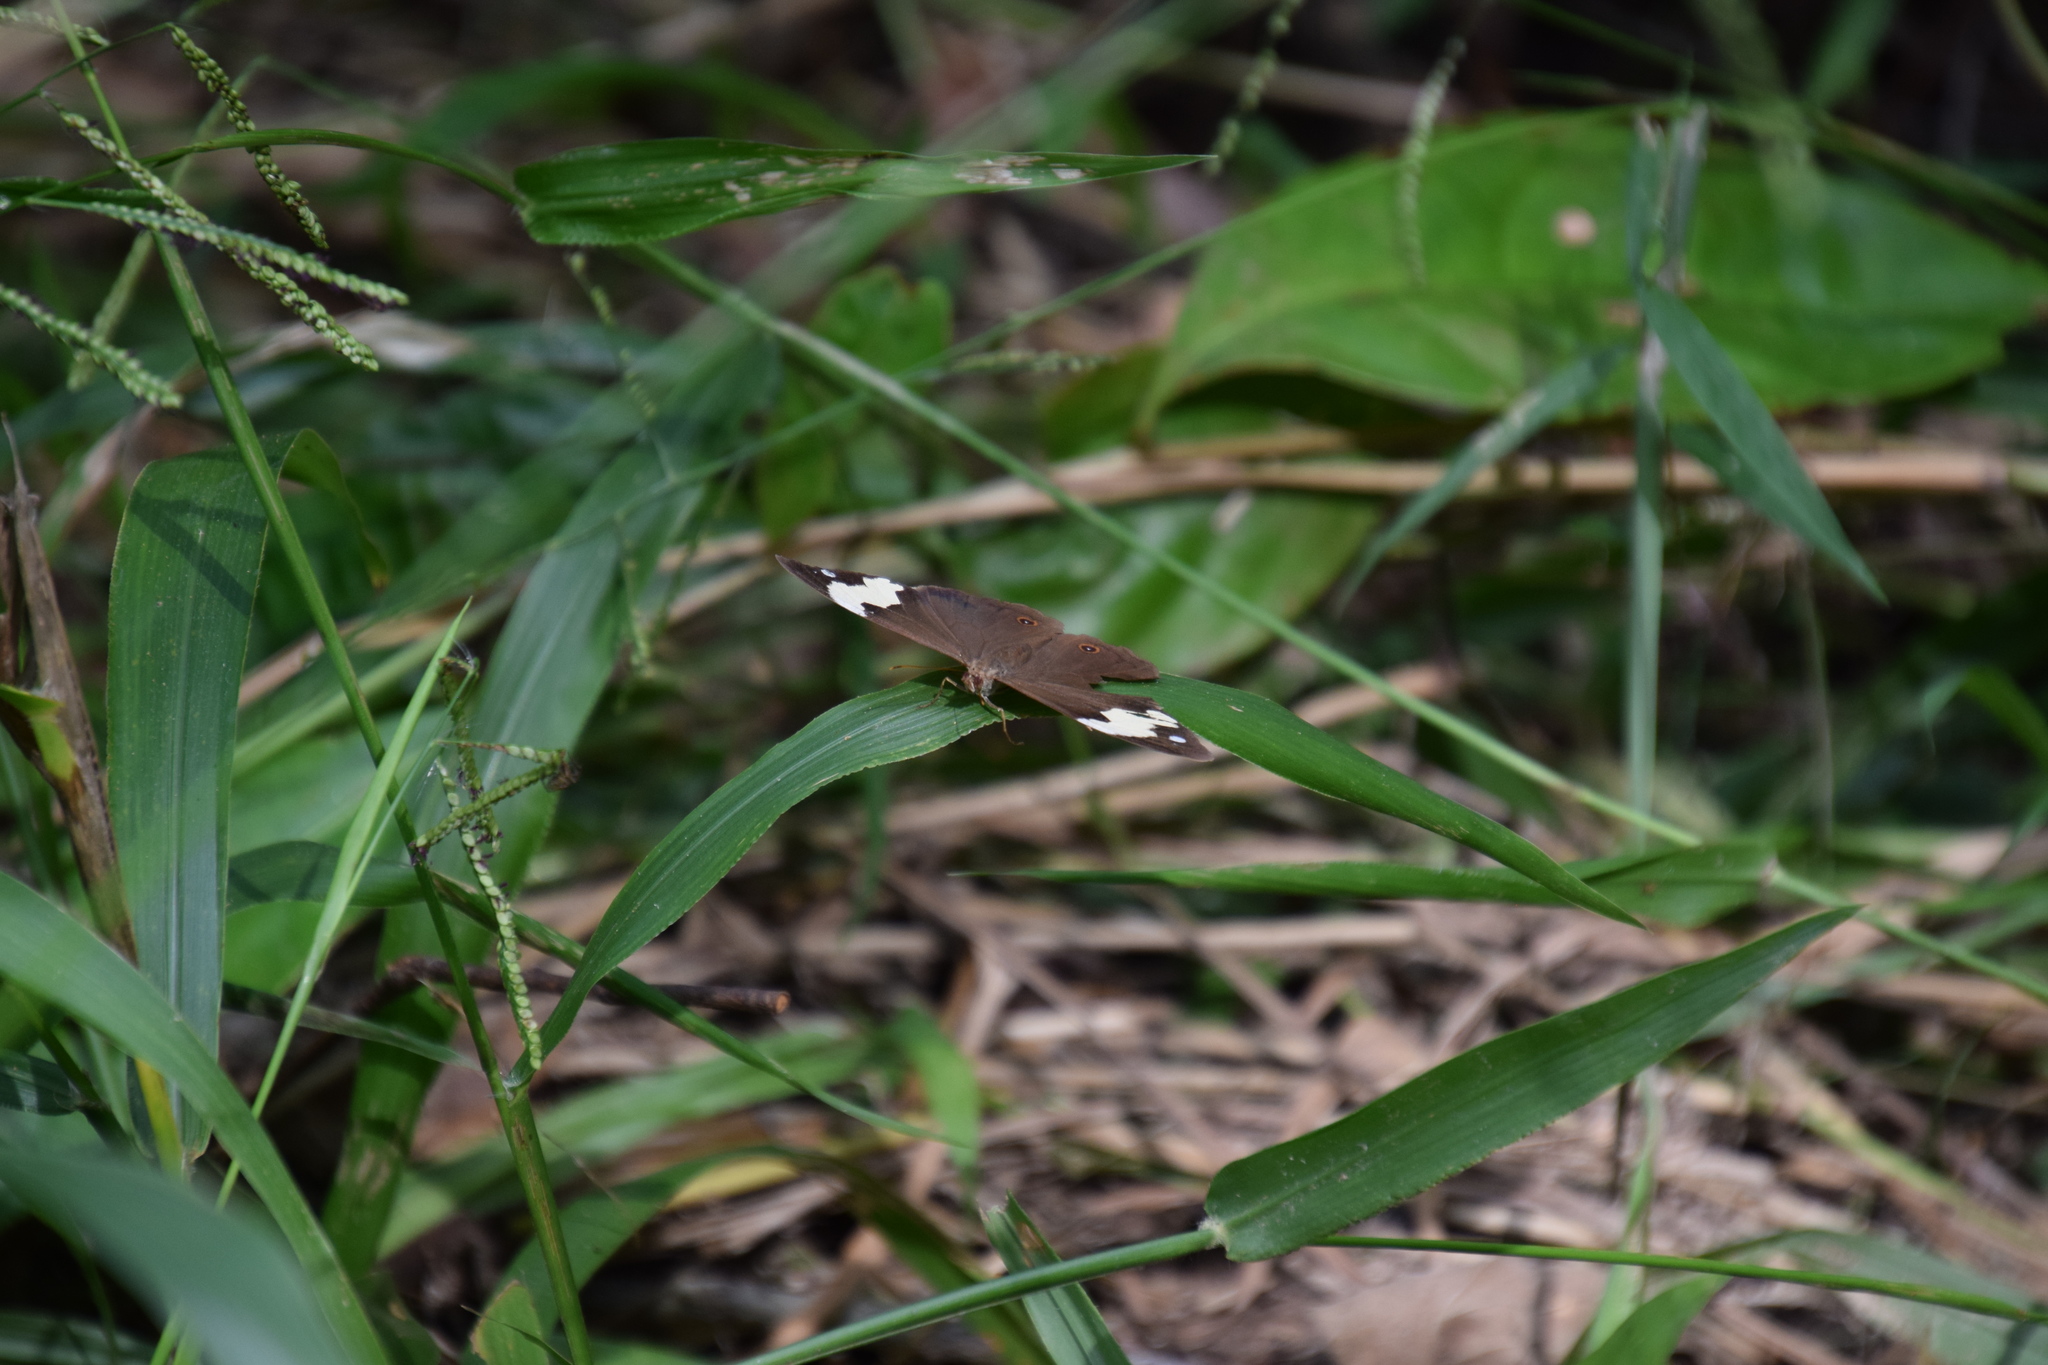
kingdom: Animalia
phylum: Arthropoda
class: Insecta
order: Lepidoptera
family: Nymphalidae
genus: Heteronympha
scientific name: Heteronympha mirifica
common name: Wonder brown
